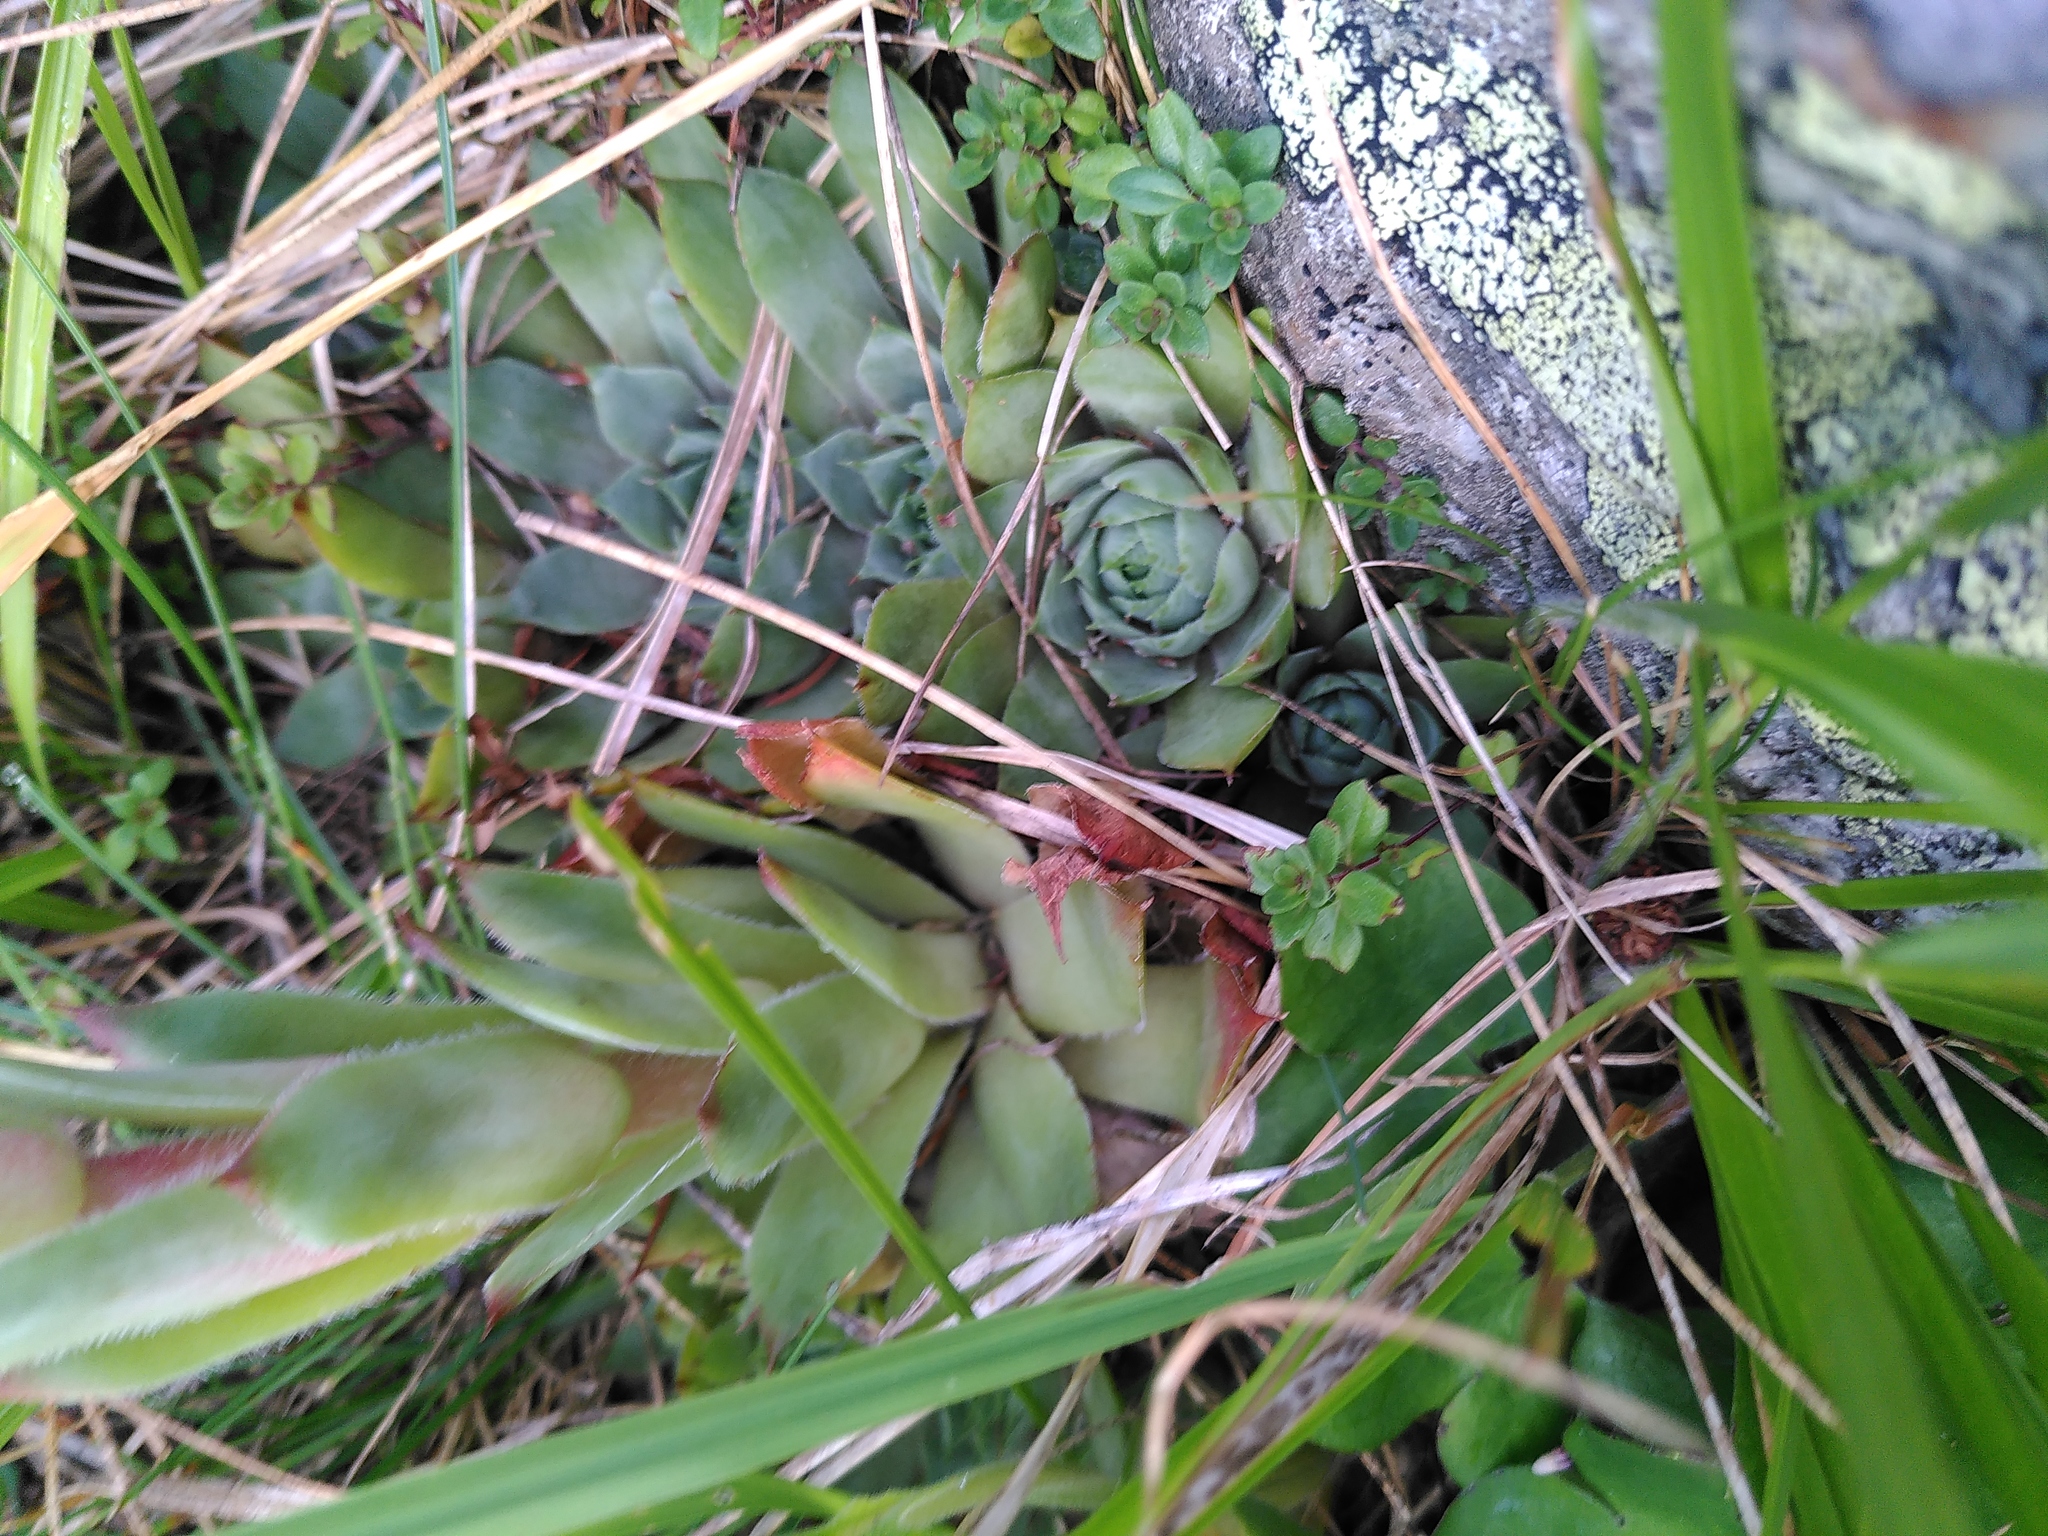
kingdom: Plantae
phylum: Tracheophyta
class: Magnoliopsida
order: Saxifragales
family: Crassulaceae
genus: Sempervivum
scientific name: Sempervivum tectorum
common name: House-leek
